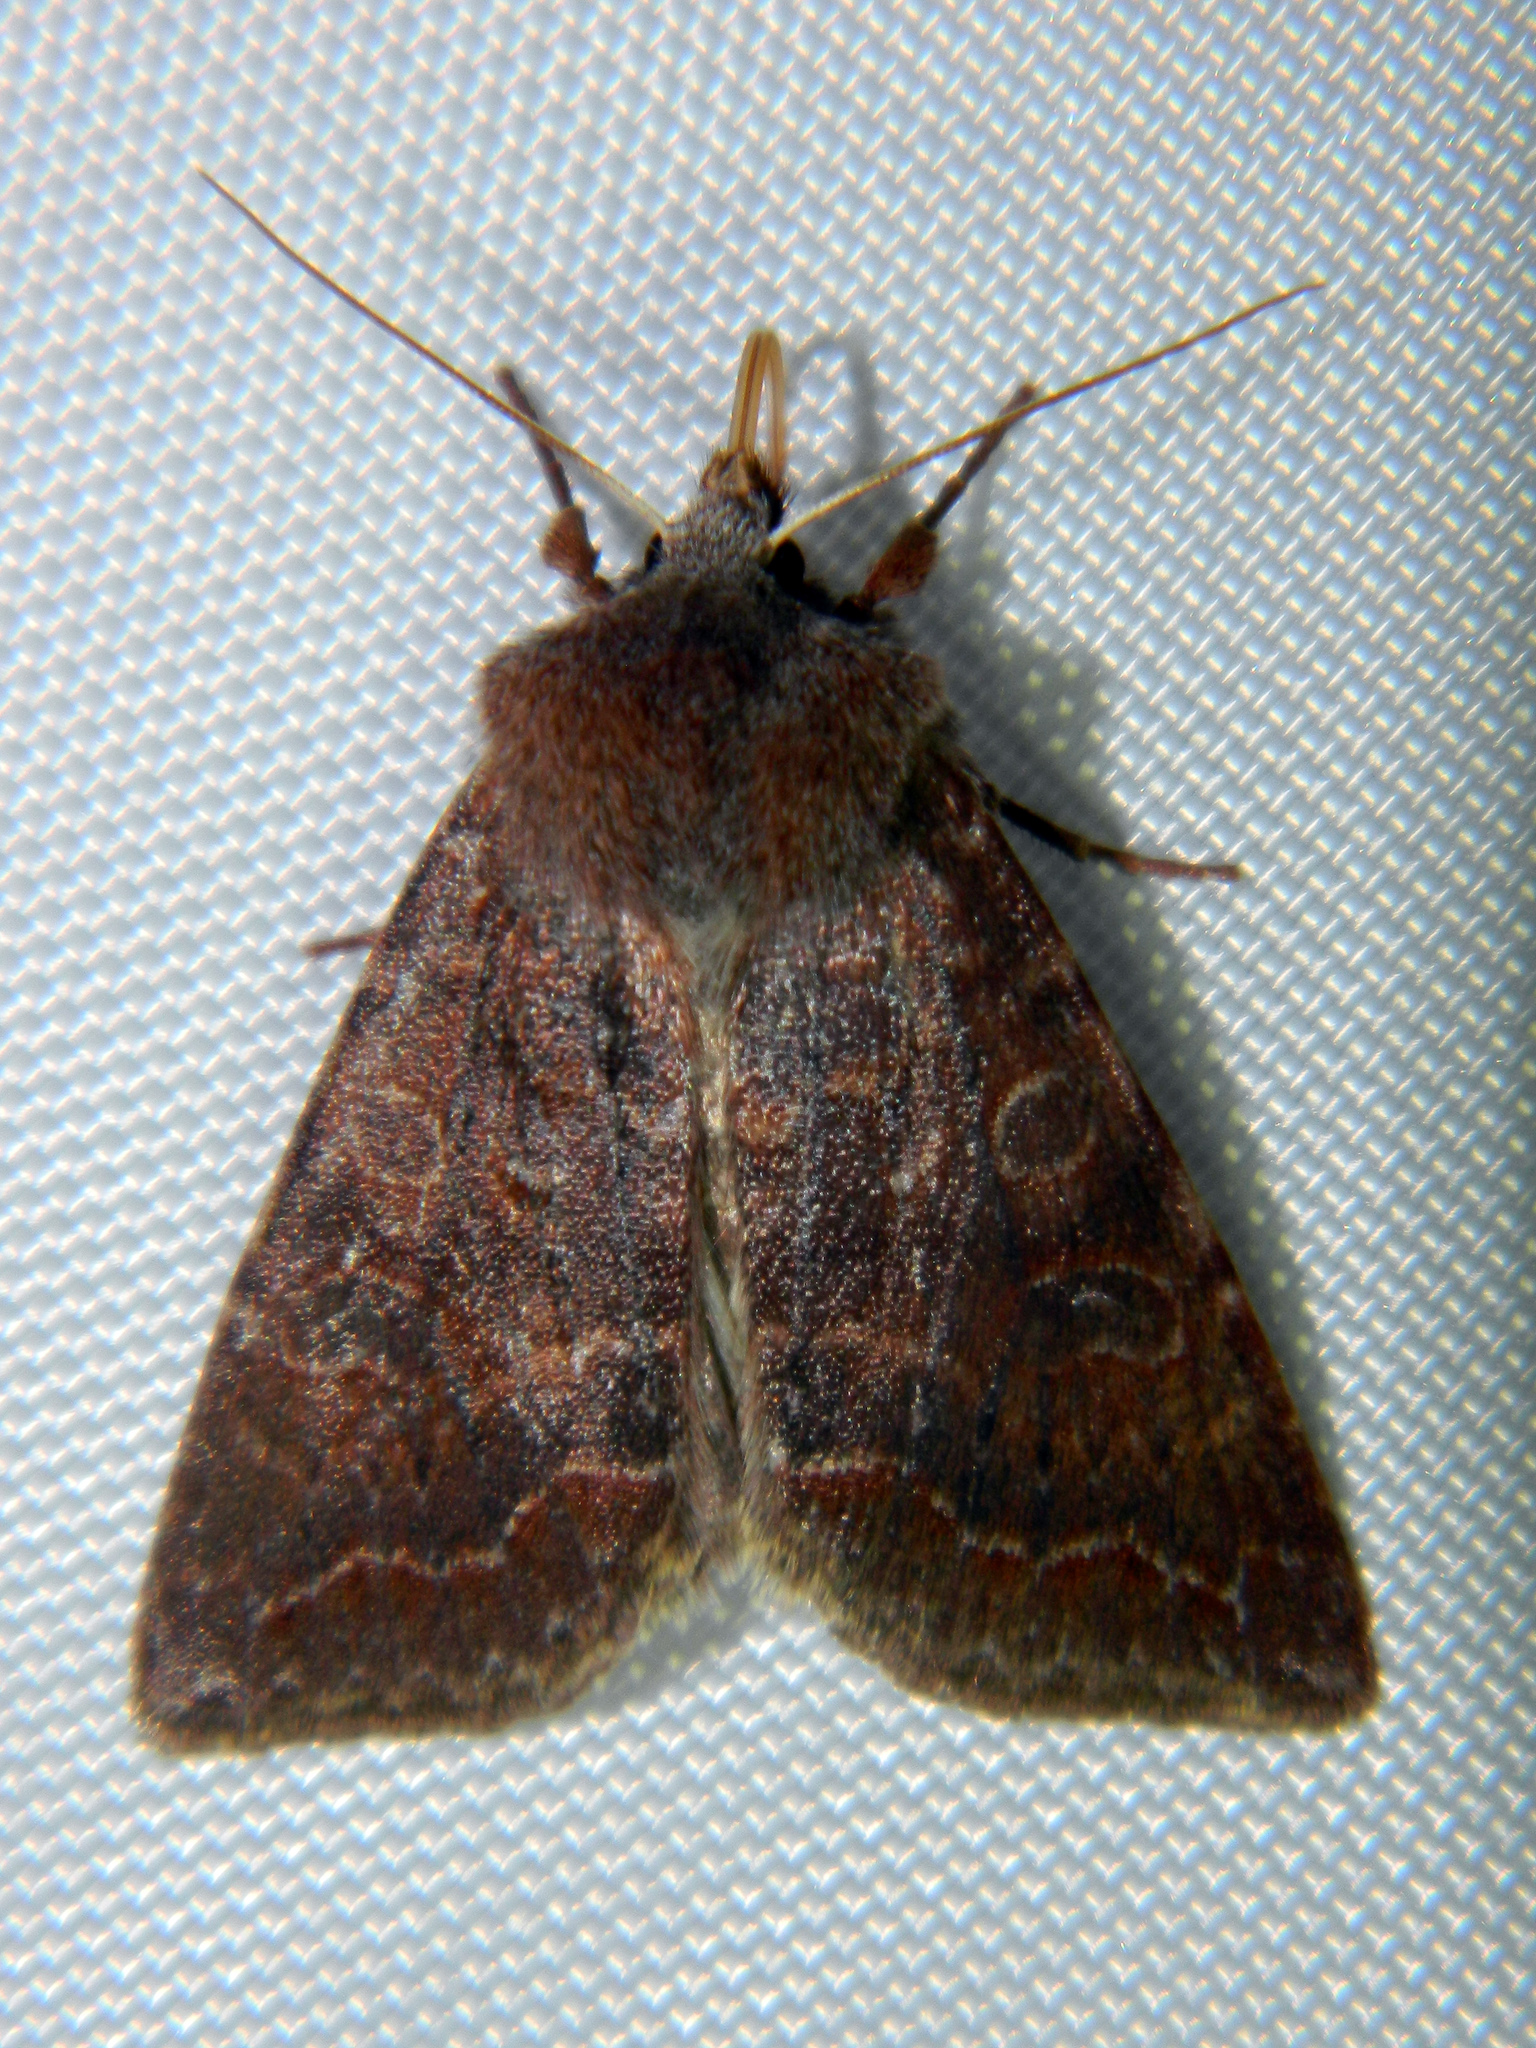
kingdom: Animalia
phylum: Arthropoda
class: Insecta
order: Lepidoptera
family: Noctuidae
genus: Orthosia
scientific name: Orthosia revicta
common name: Rusty whitesided caterpillar
